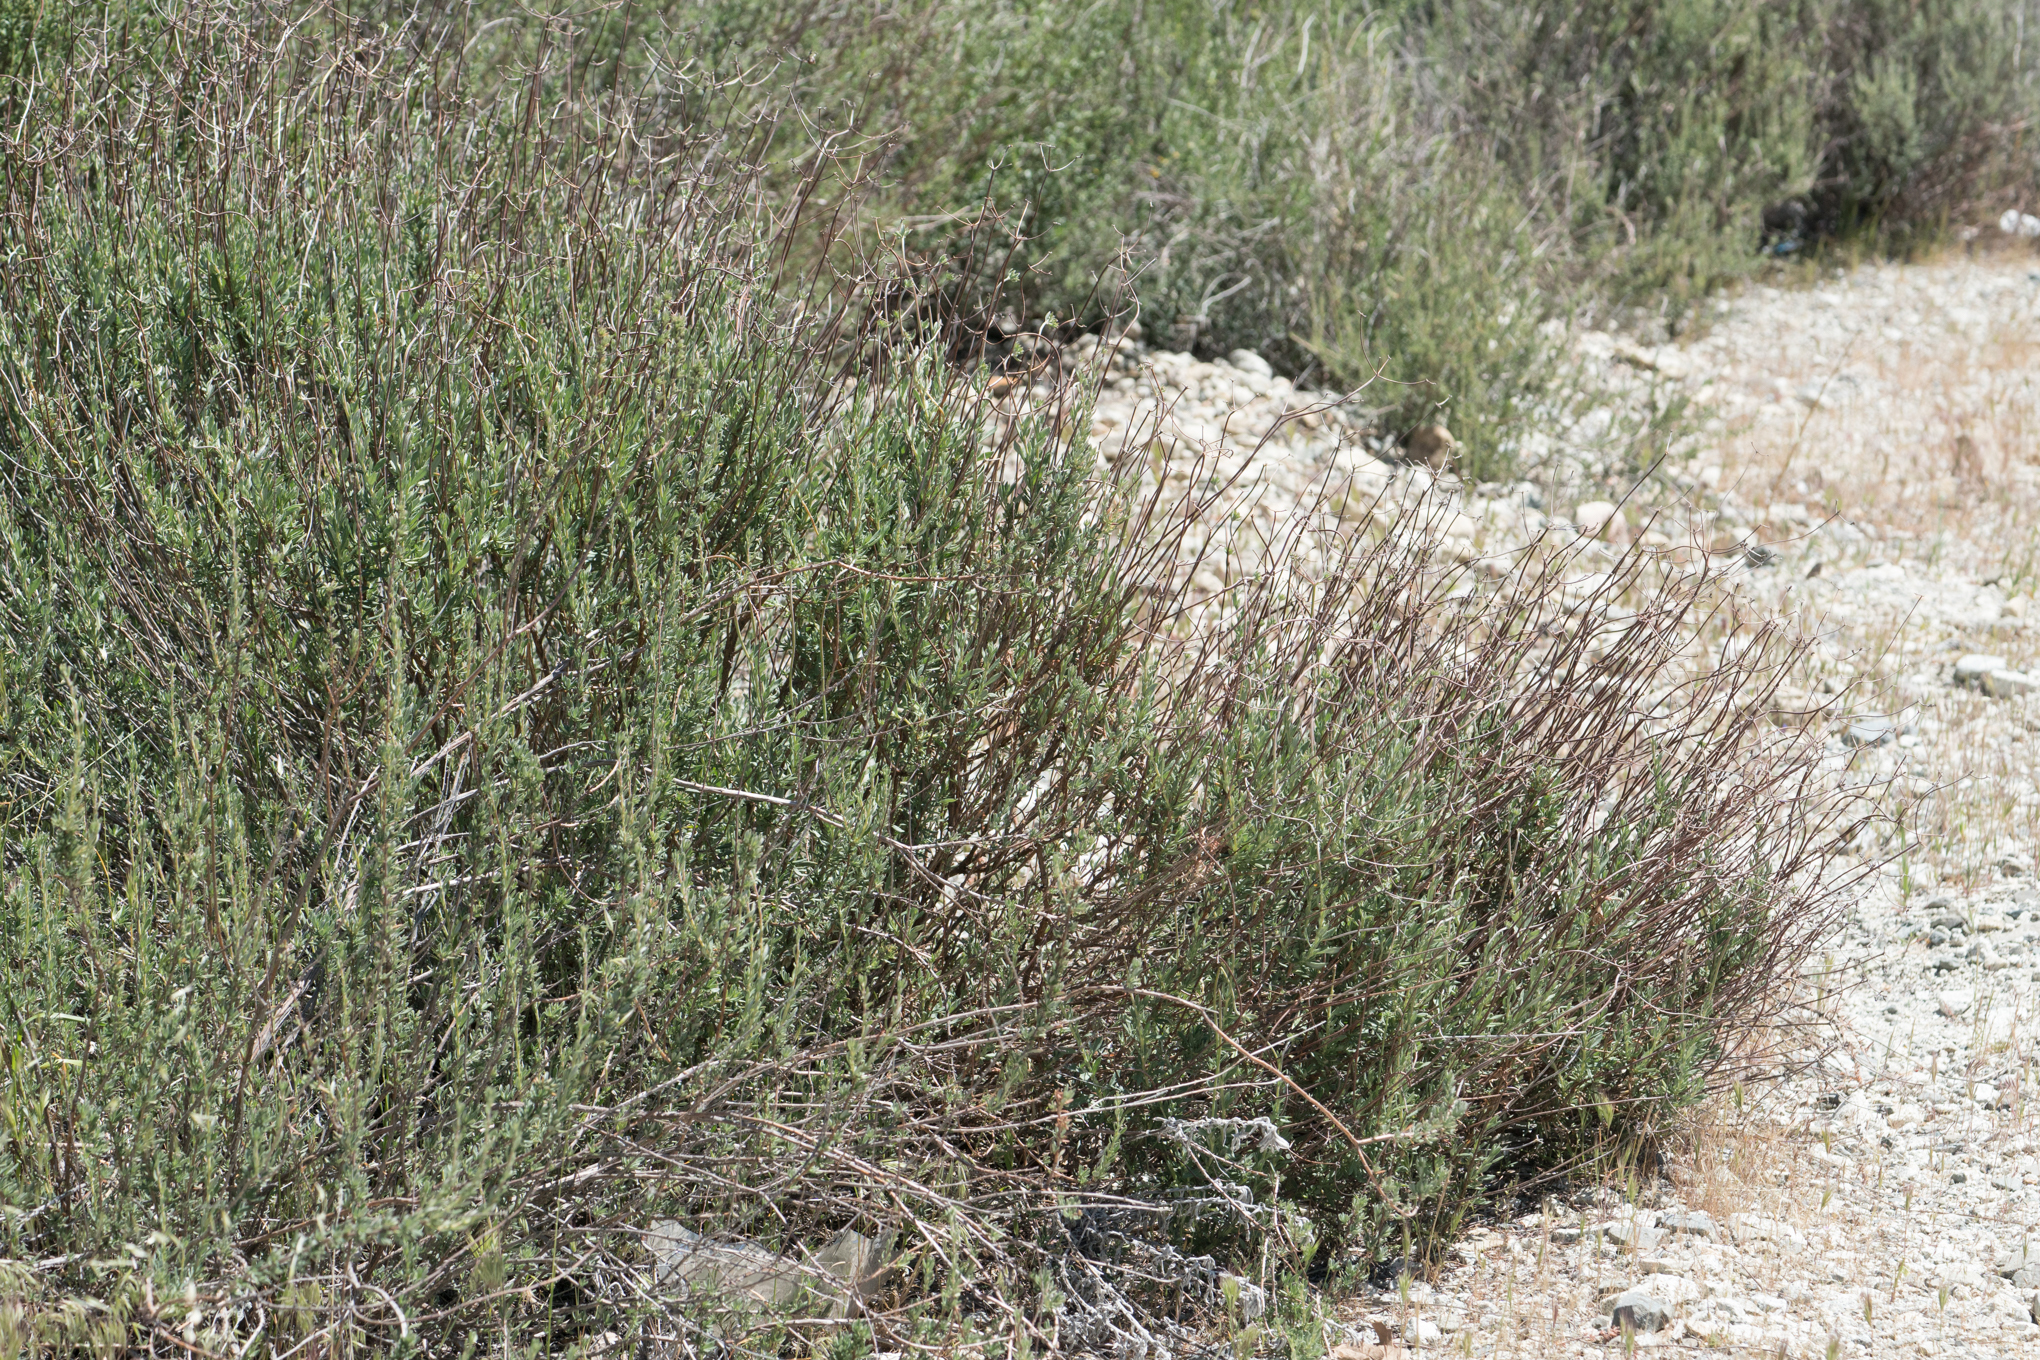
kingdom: Plantae
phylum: Tracheophyta
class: Magnoliopsida
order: Caryophyllales
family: Polygonaceae
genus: Eriogonum
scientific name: Eriogonum fasciculatum
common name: California wild buckwheat
